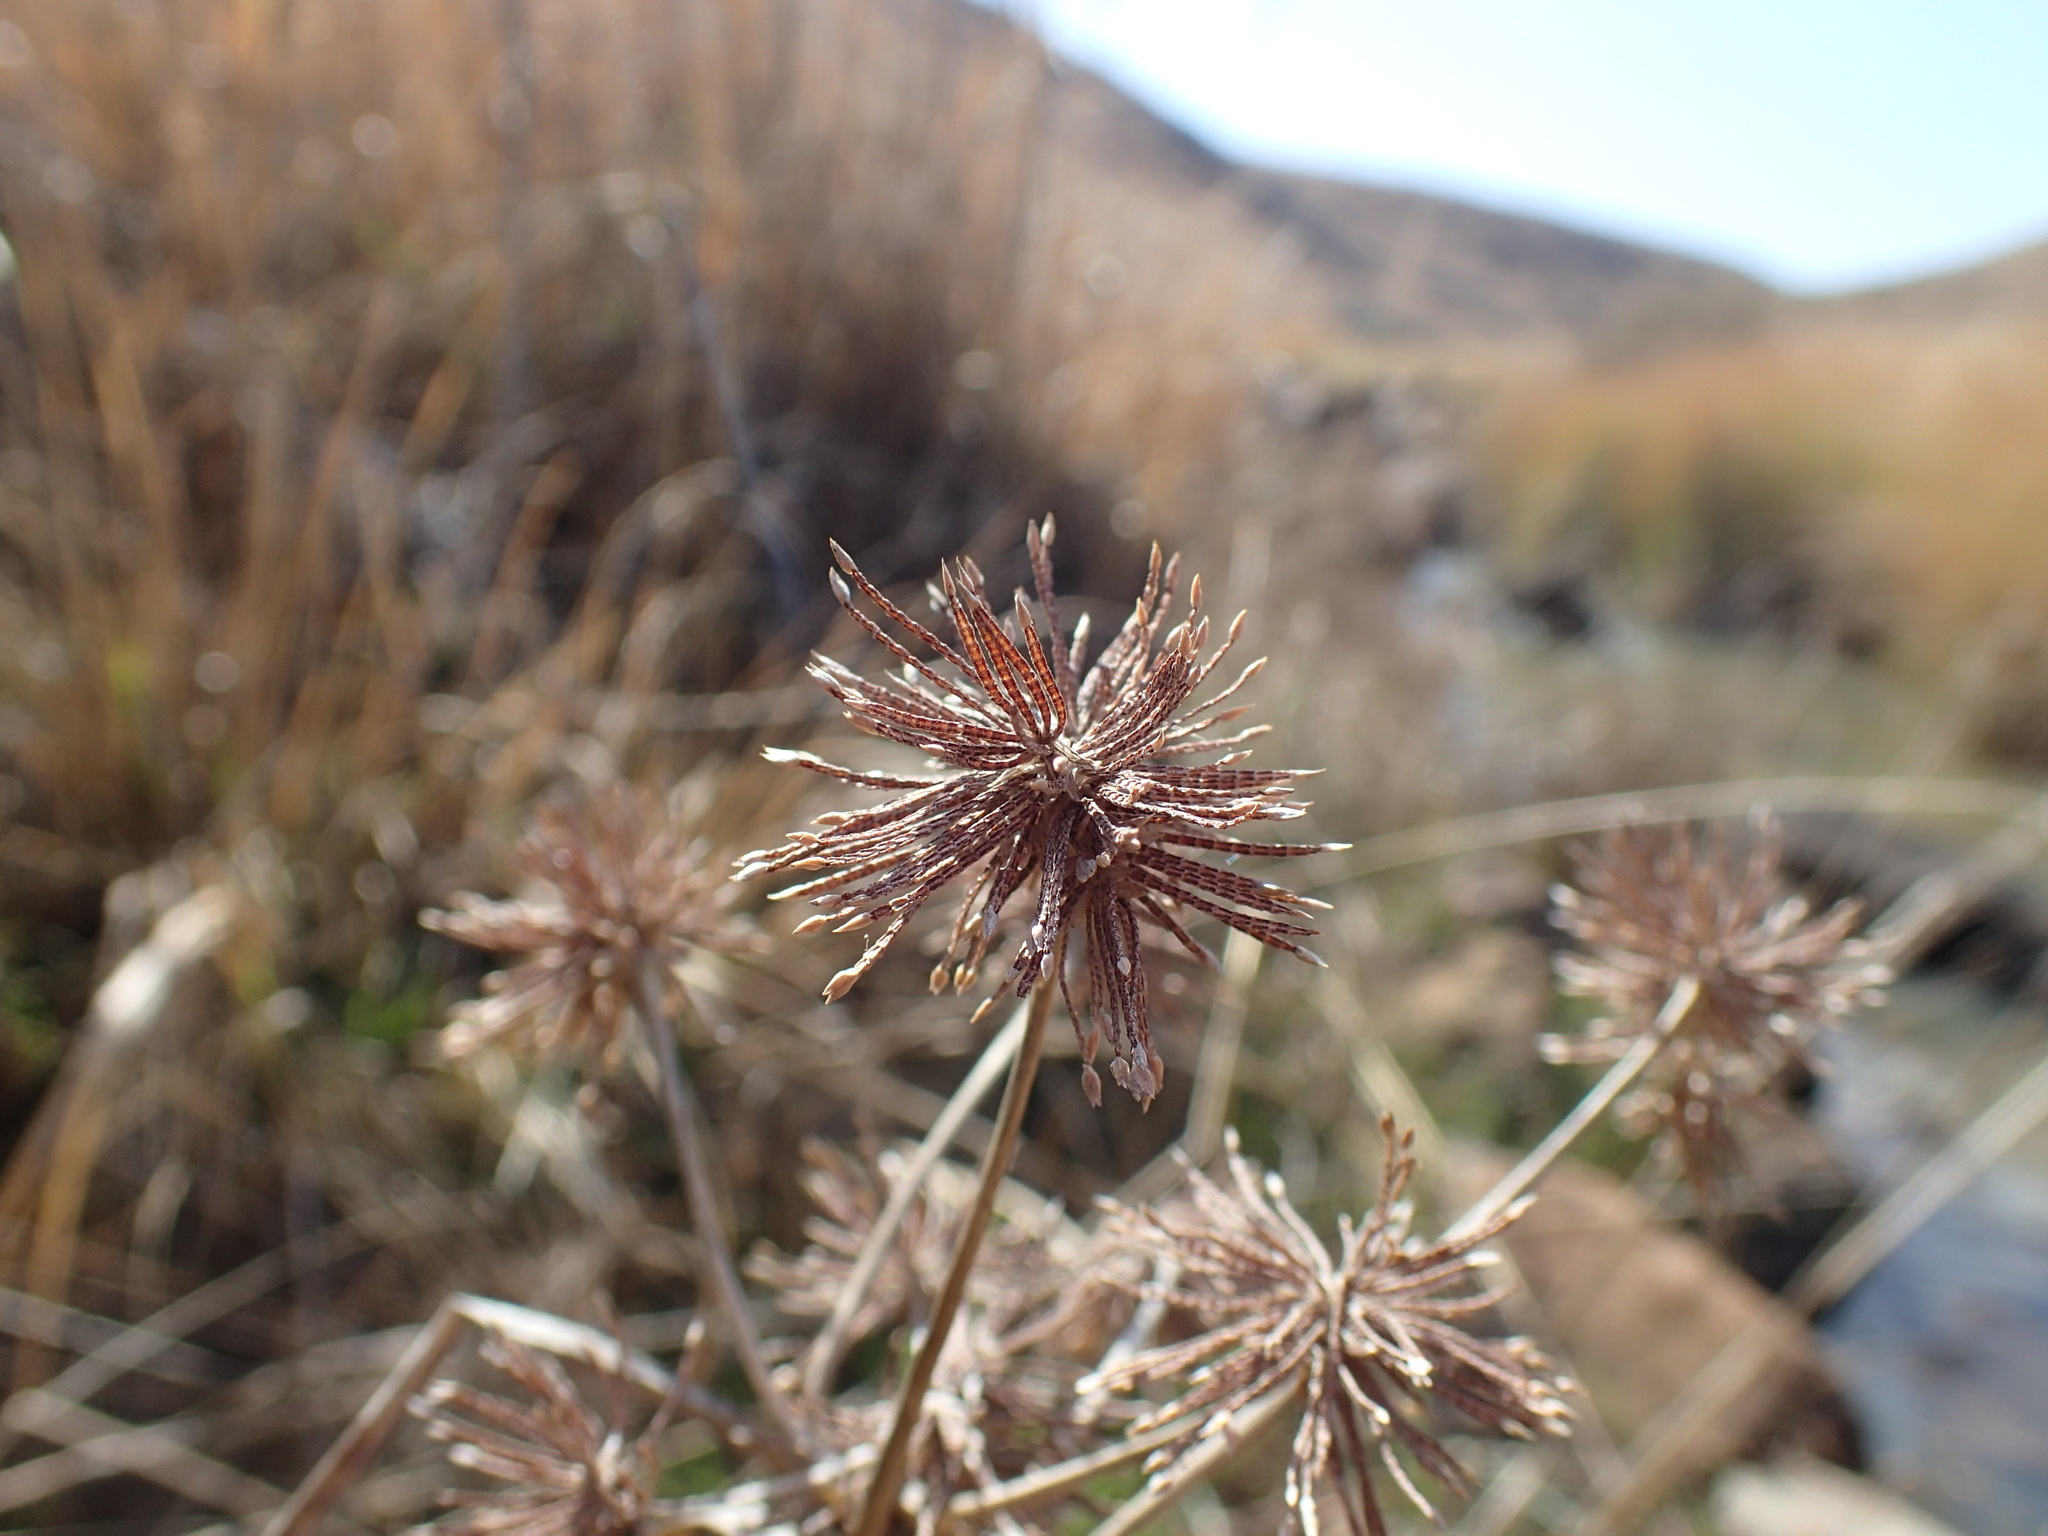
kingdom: Plantae
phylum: Tracheophyta
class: Liliopsida
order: Poales
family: Cyperaceae
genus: Cyperus
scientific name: Cyperus congestus
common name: Dense flat sedge
